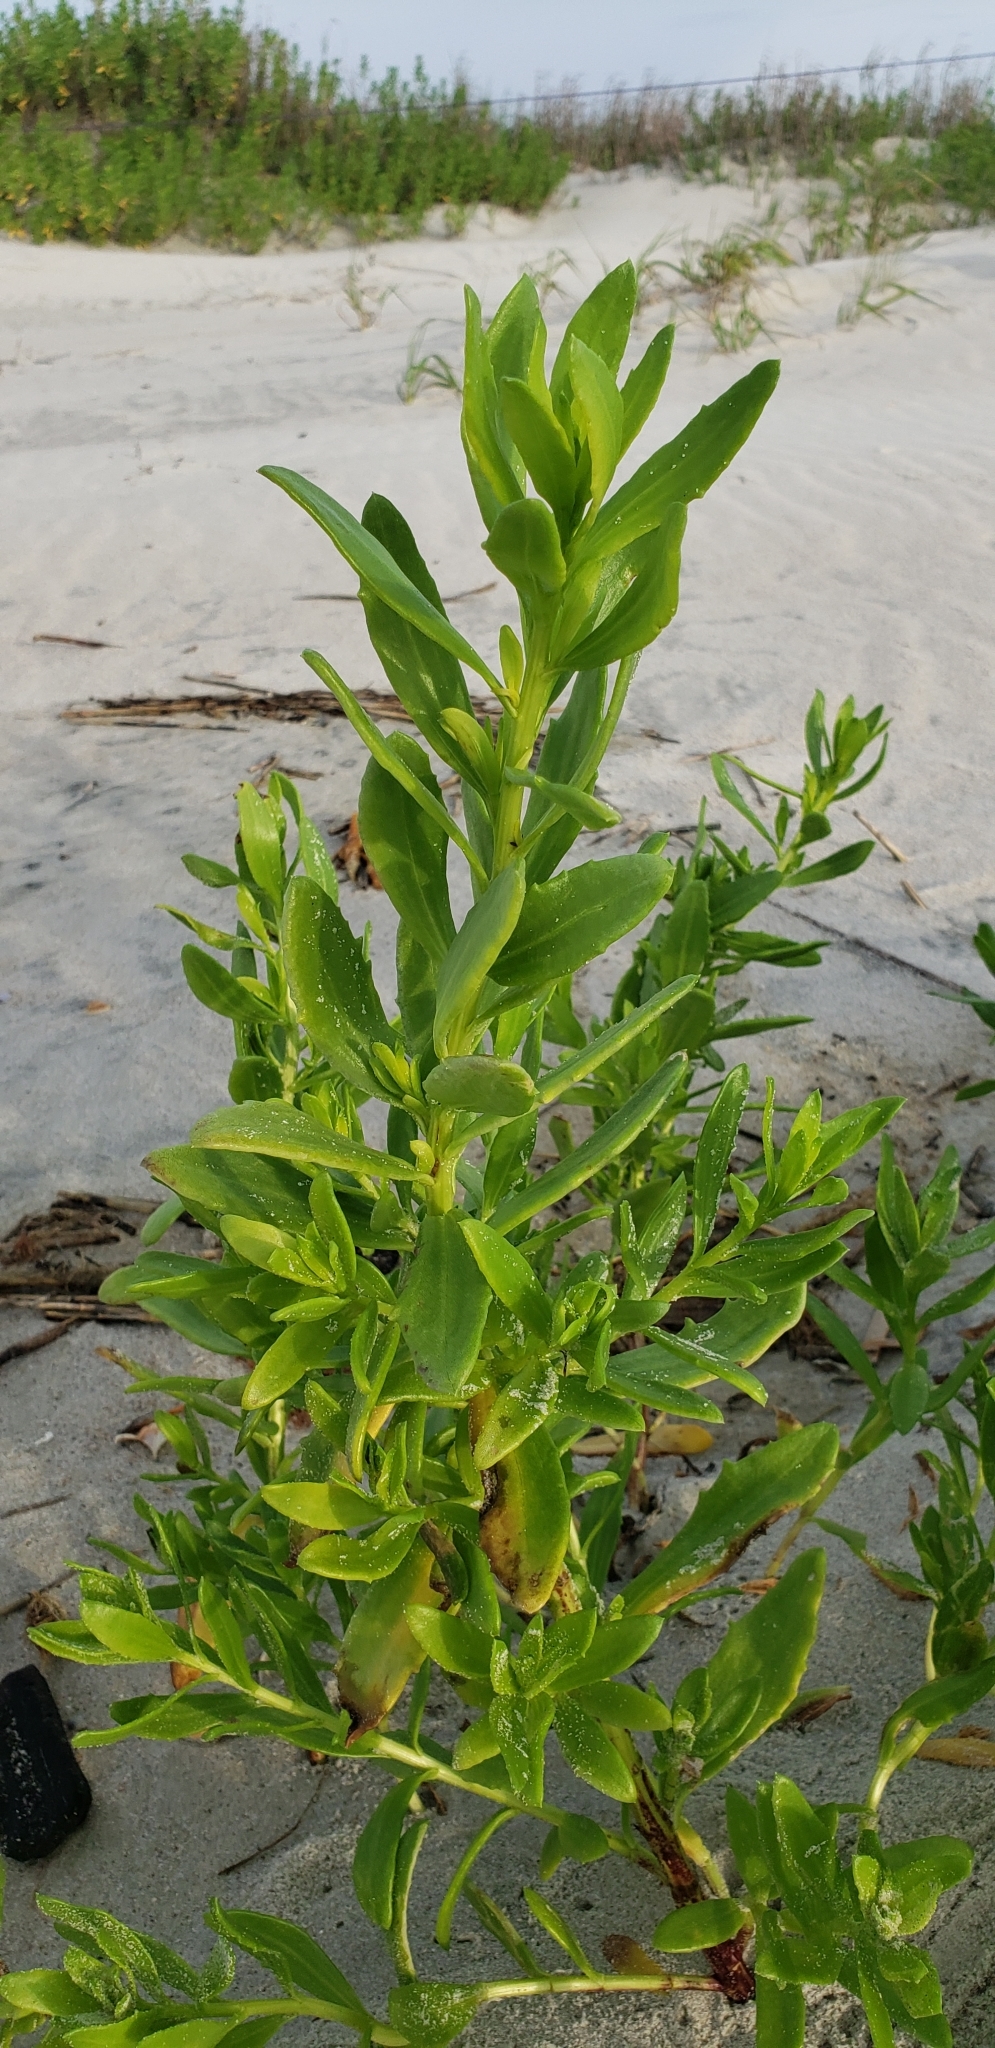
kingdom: Plantae
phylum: Tracheophyta
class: Magnoliopsida
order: Asterales
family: Asteraceae
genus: Iva
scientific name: Iva imbricata
